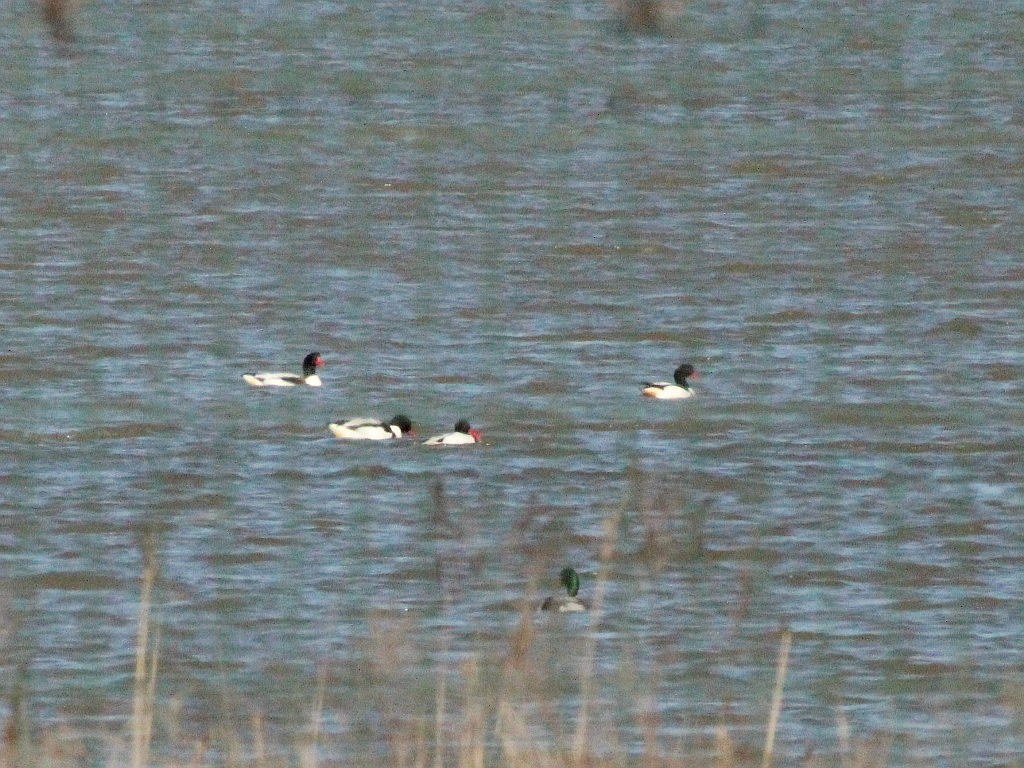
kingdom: Animalia
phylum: Chordata
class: Aves
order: Anseriformes
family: Anatidae
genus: Tadorna
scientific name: Tadorna tadorna
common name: Common shelduck
